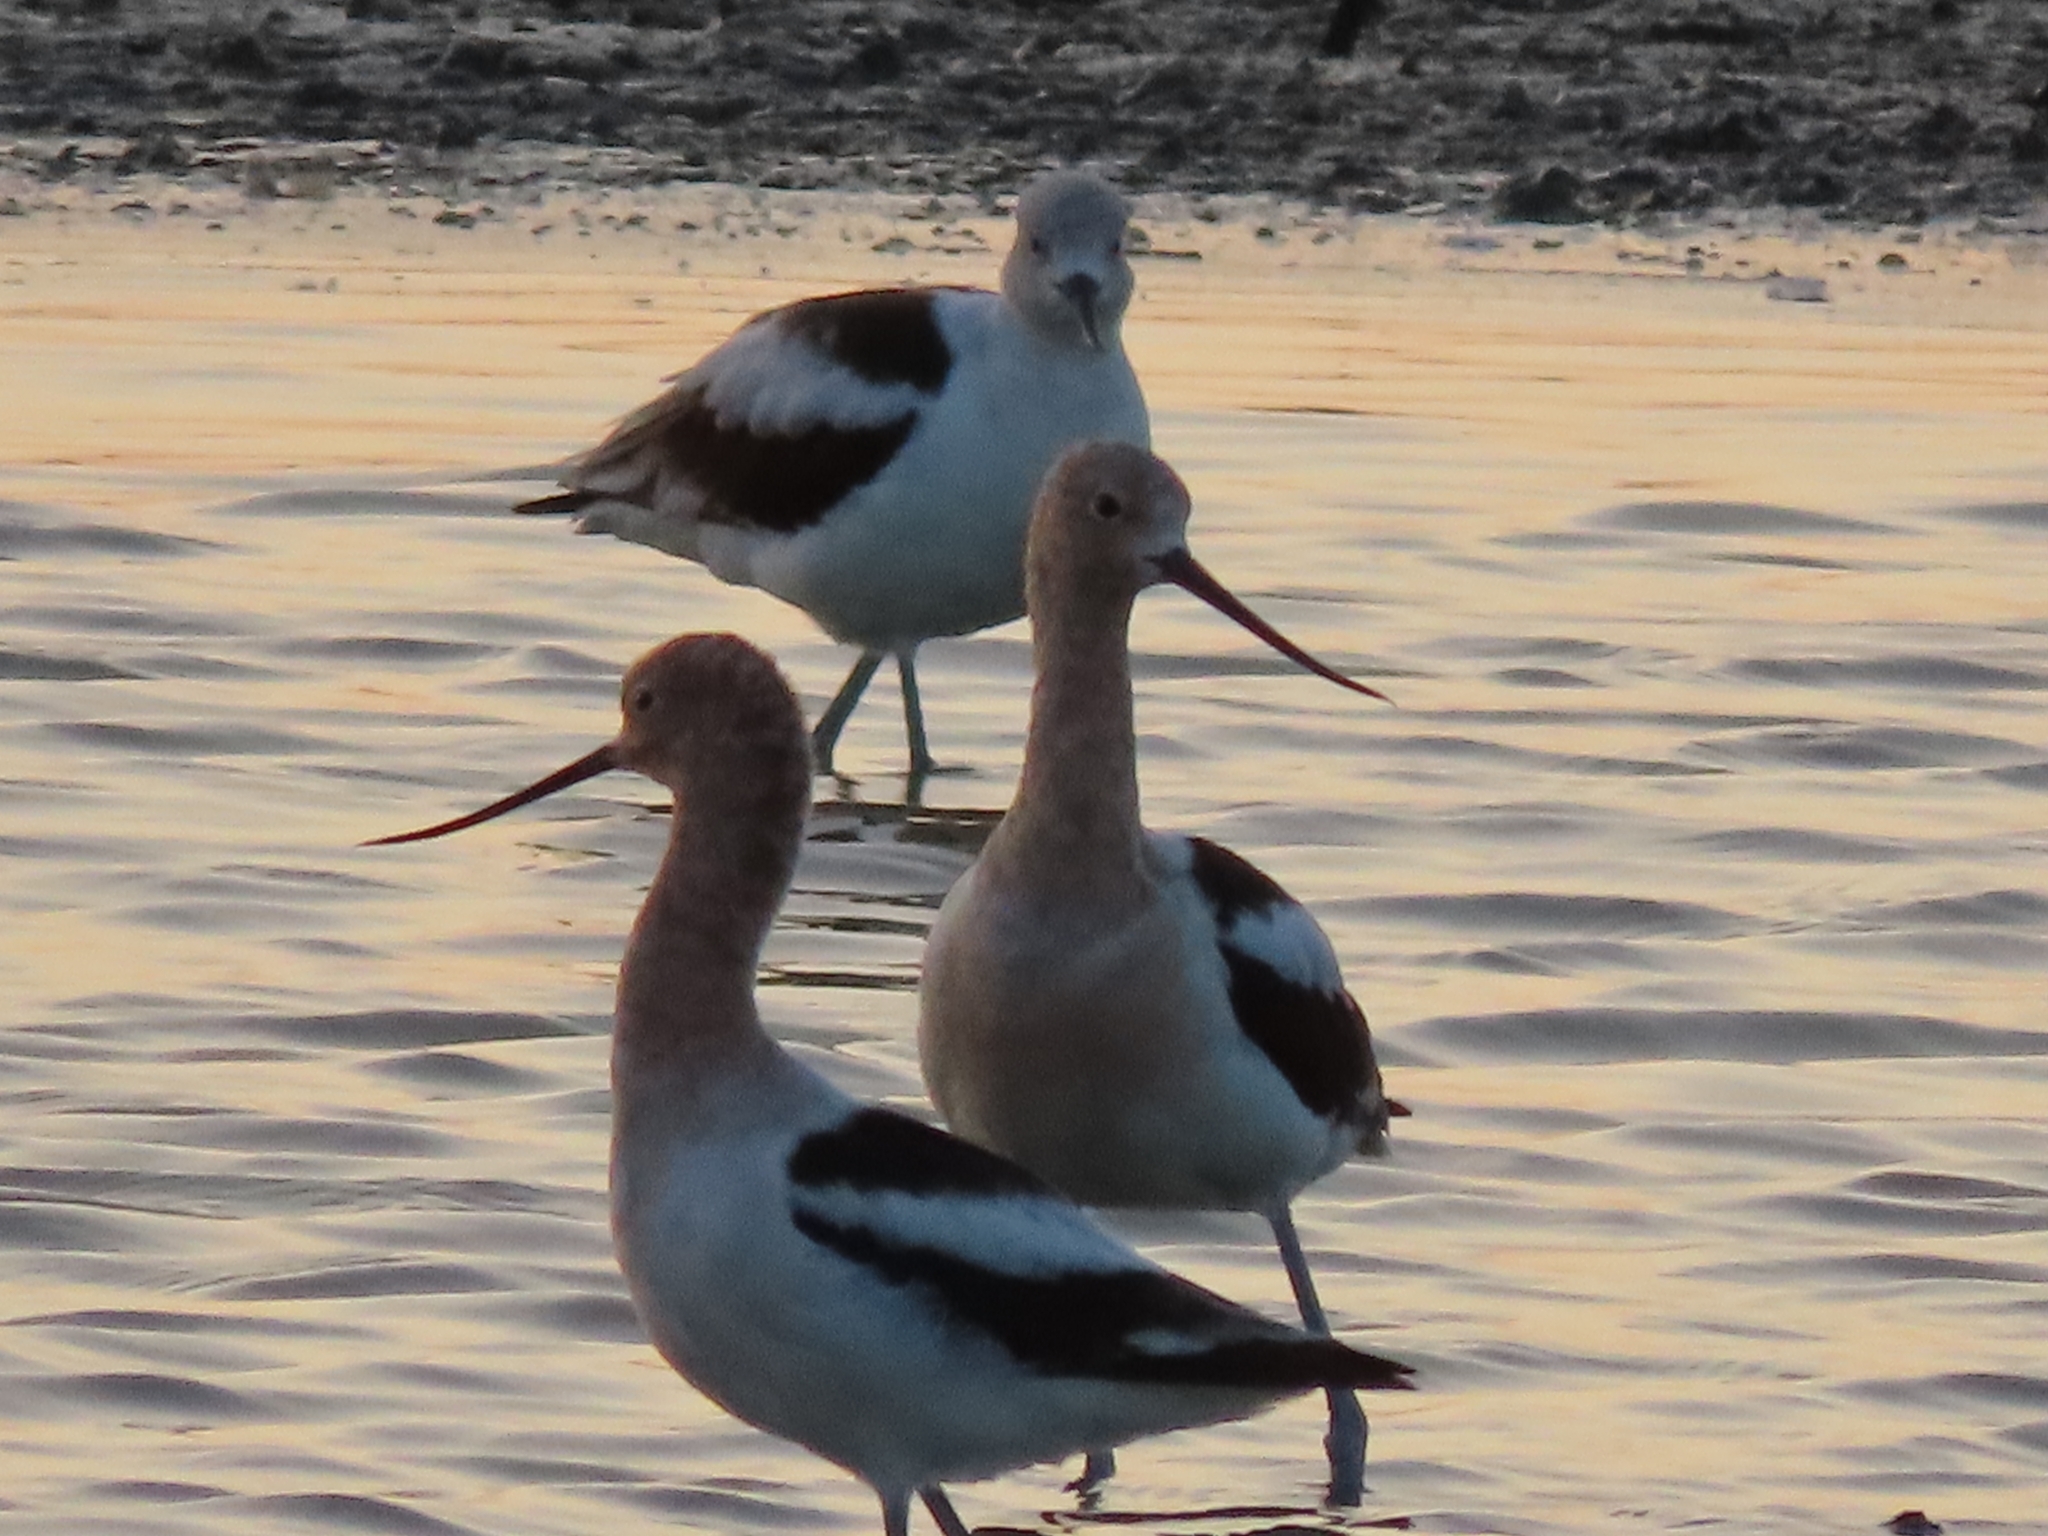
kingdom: Animalia
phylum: Chordata
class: Aves
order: Charadriiformes
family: Recurvirostridae
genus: Recurvirostra
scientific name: Recurvirostra americana
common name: American avocet
